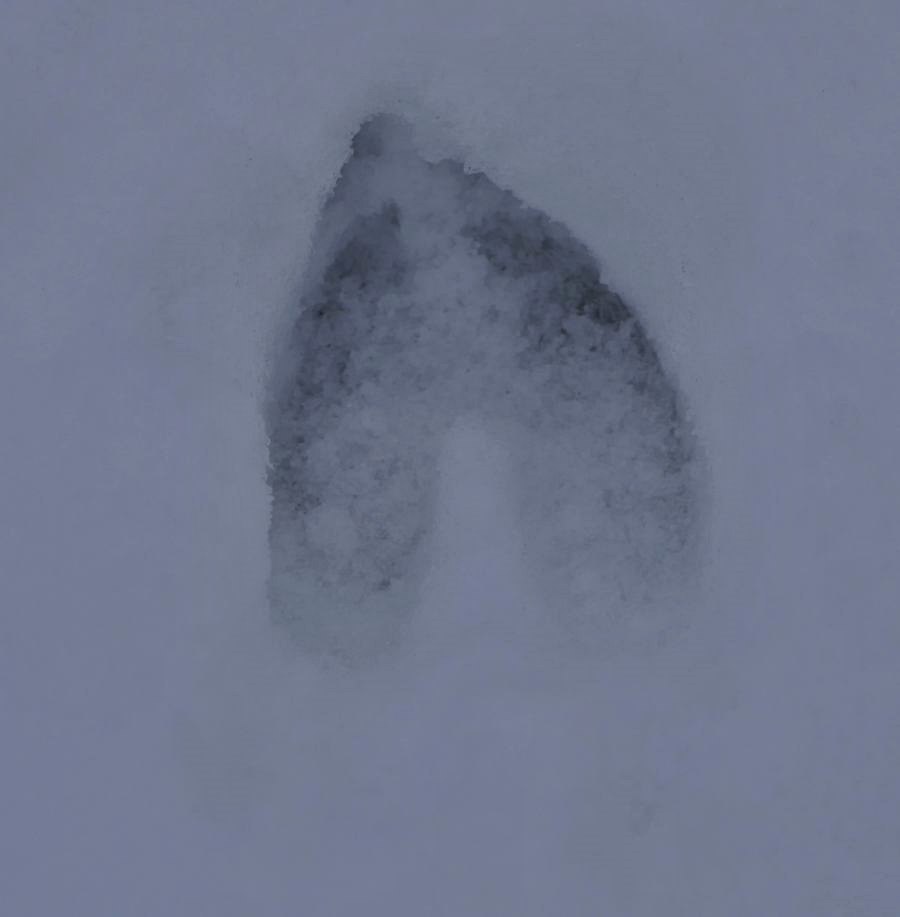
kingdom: Animalia
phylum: Chordata
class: Mammalia
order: Artiodactyla
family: Cervidae
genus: Odocoileus
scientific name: Odocoileus virginianus
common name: White-tailed deer
